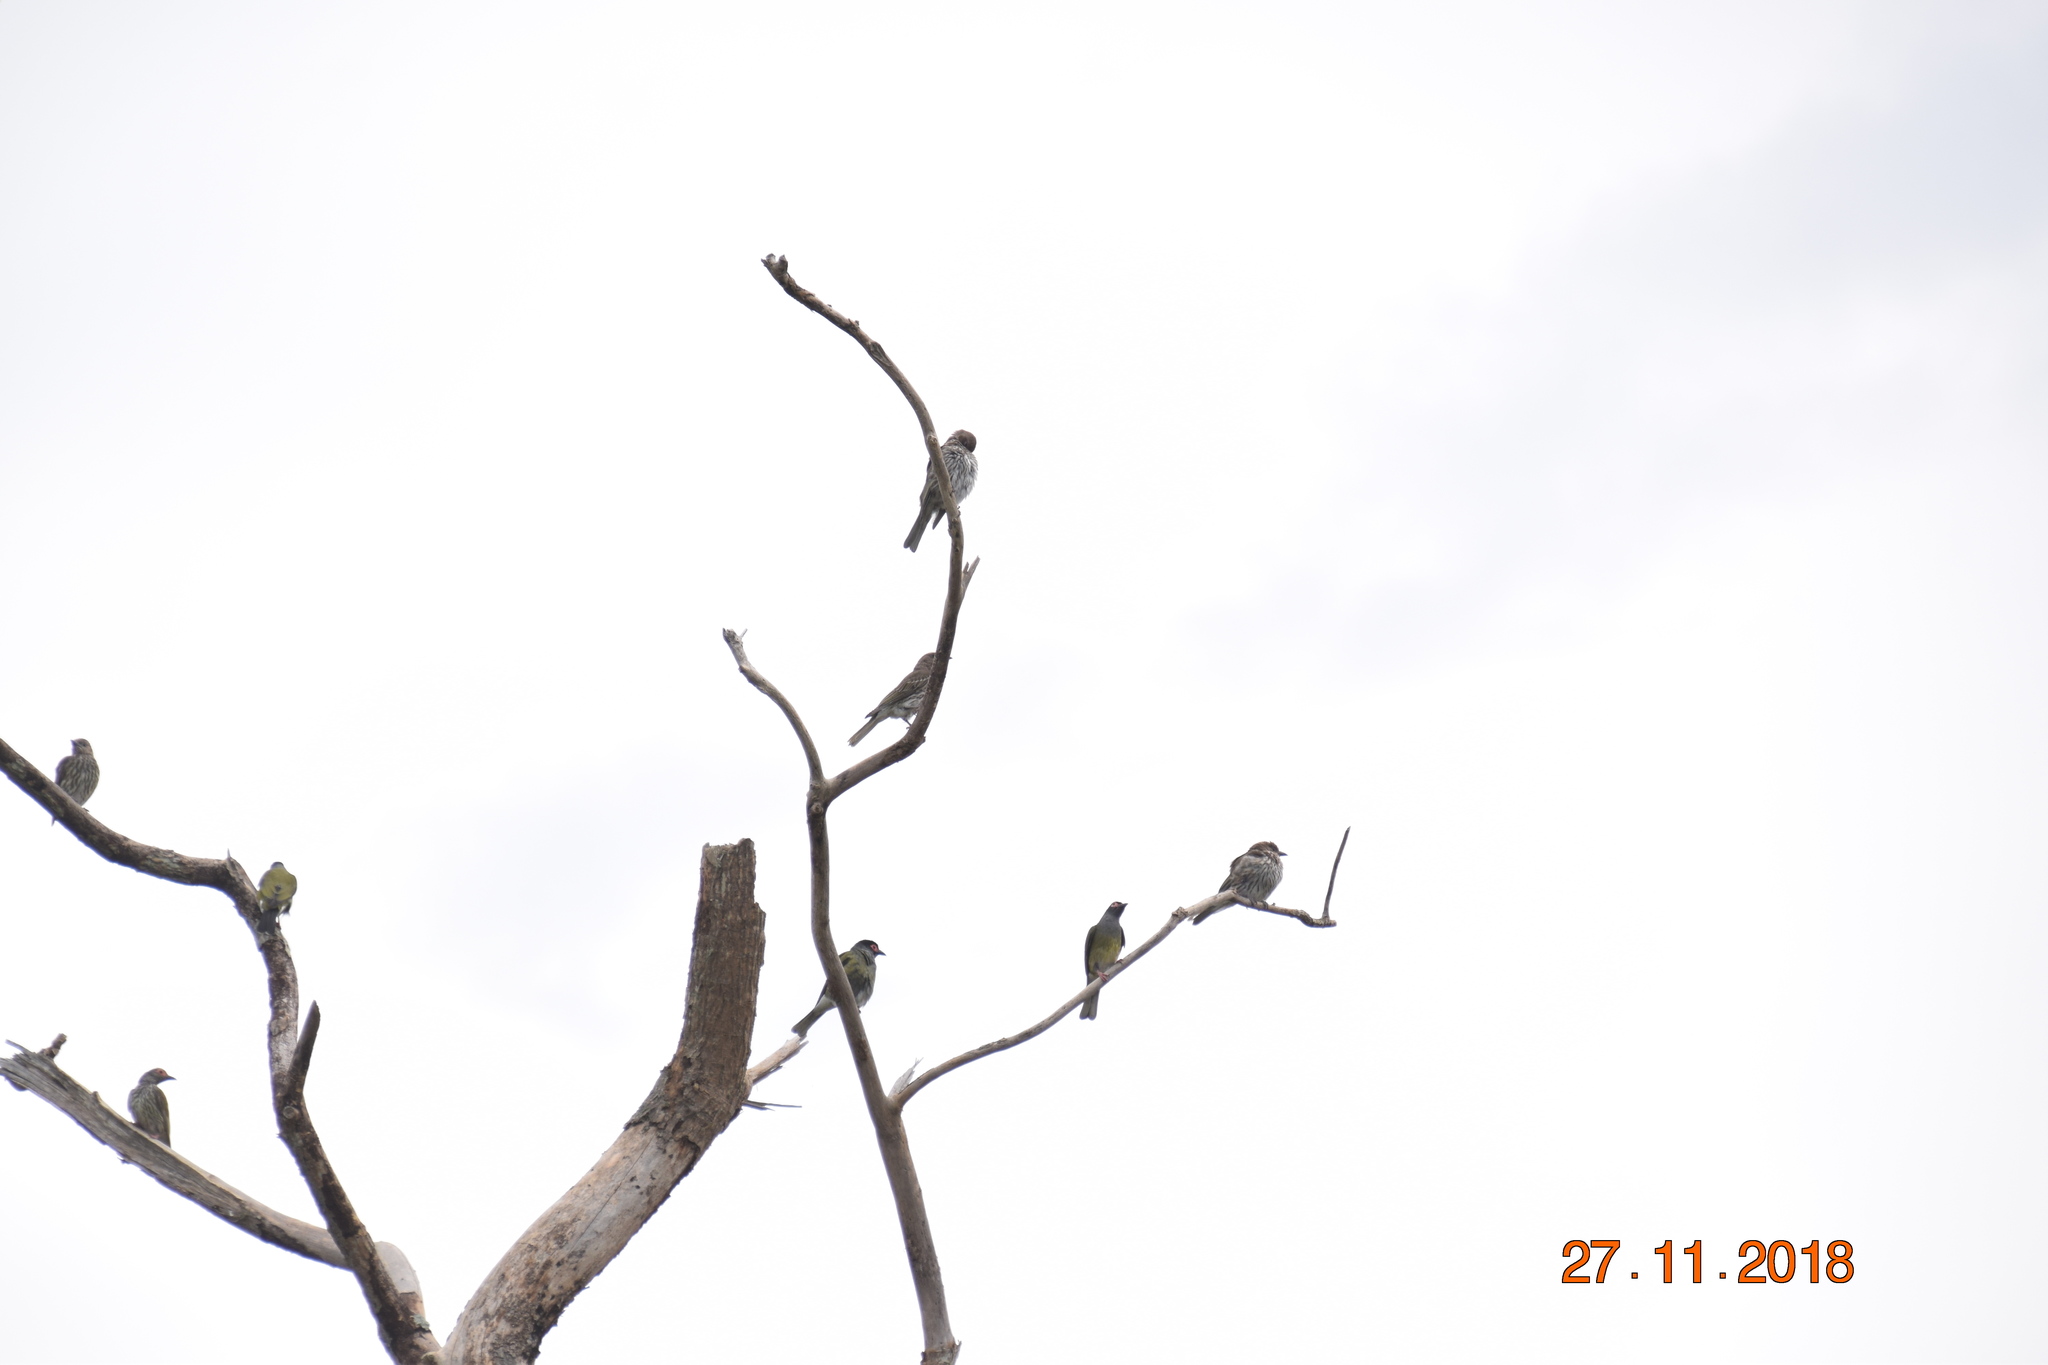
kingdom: Animalia
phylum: Chordata
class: Aves
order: Passeriformes
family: Oriolidae
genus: Sphecotheres
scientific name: Sphecotheres vieilloti
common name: Australasian figbird
